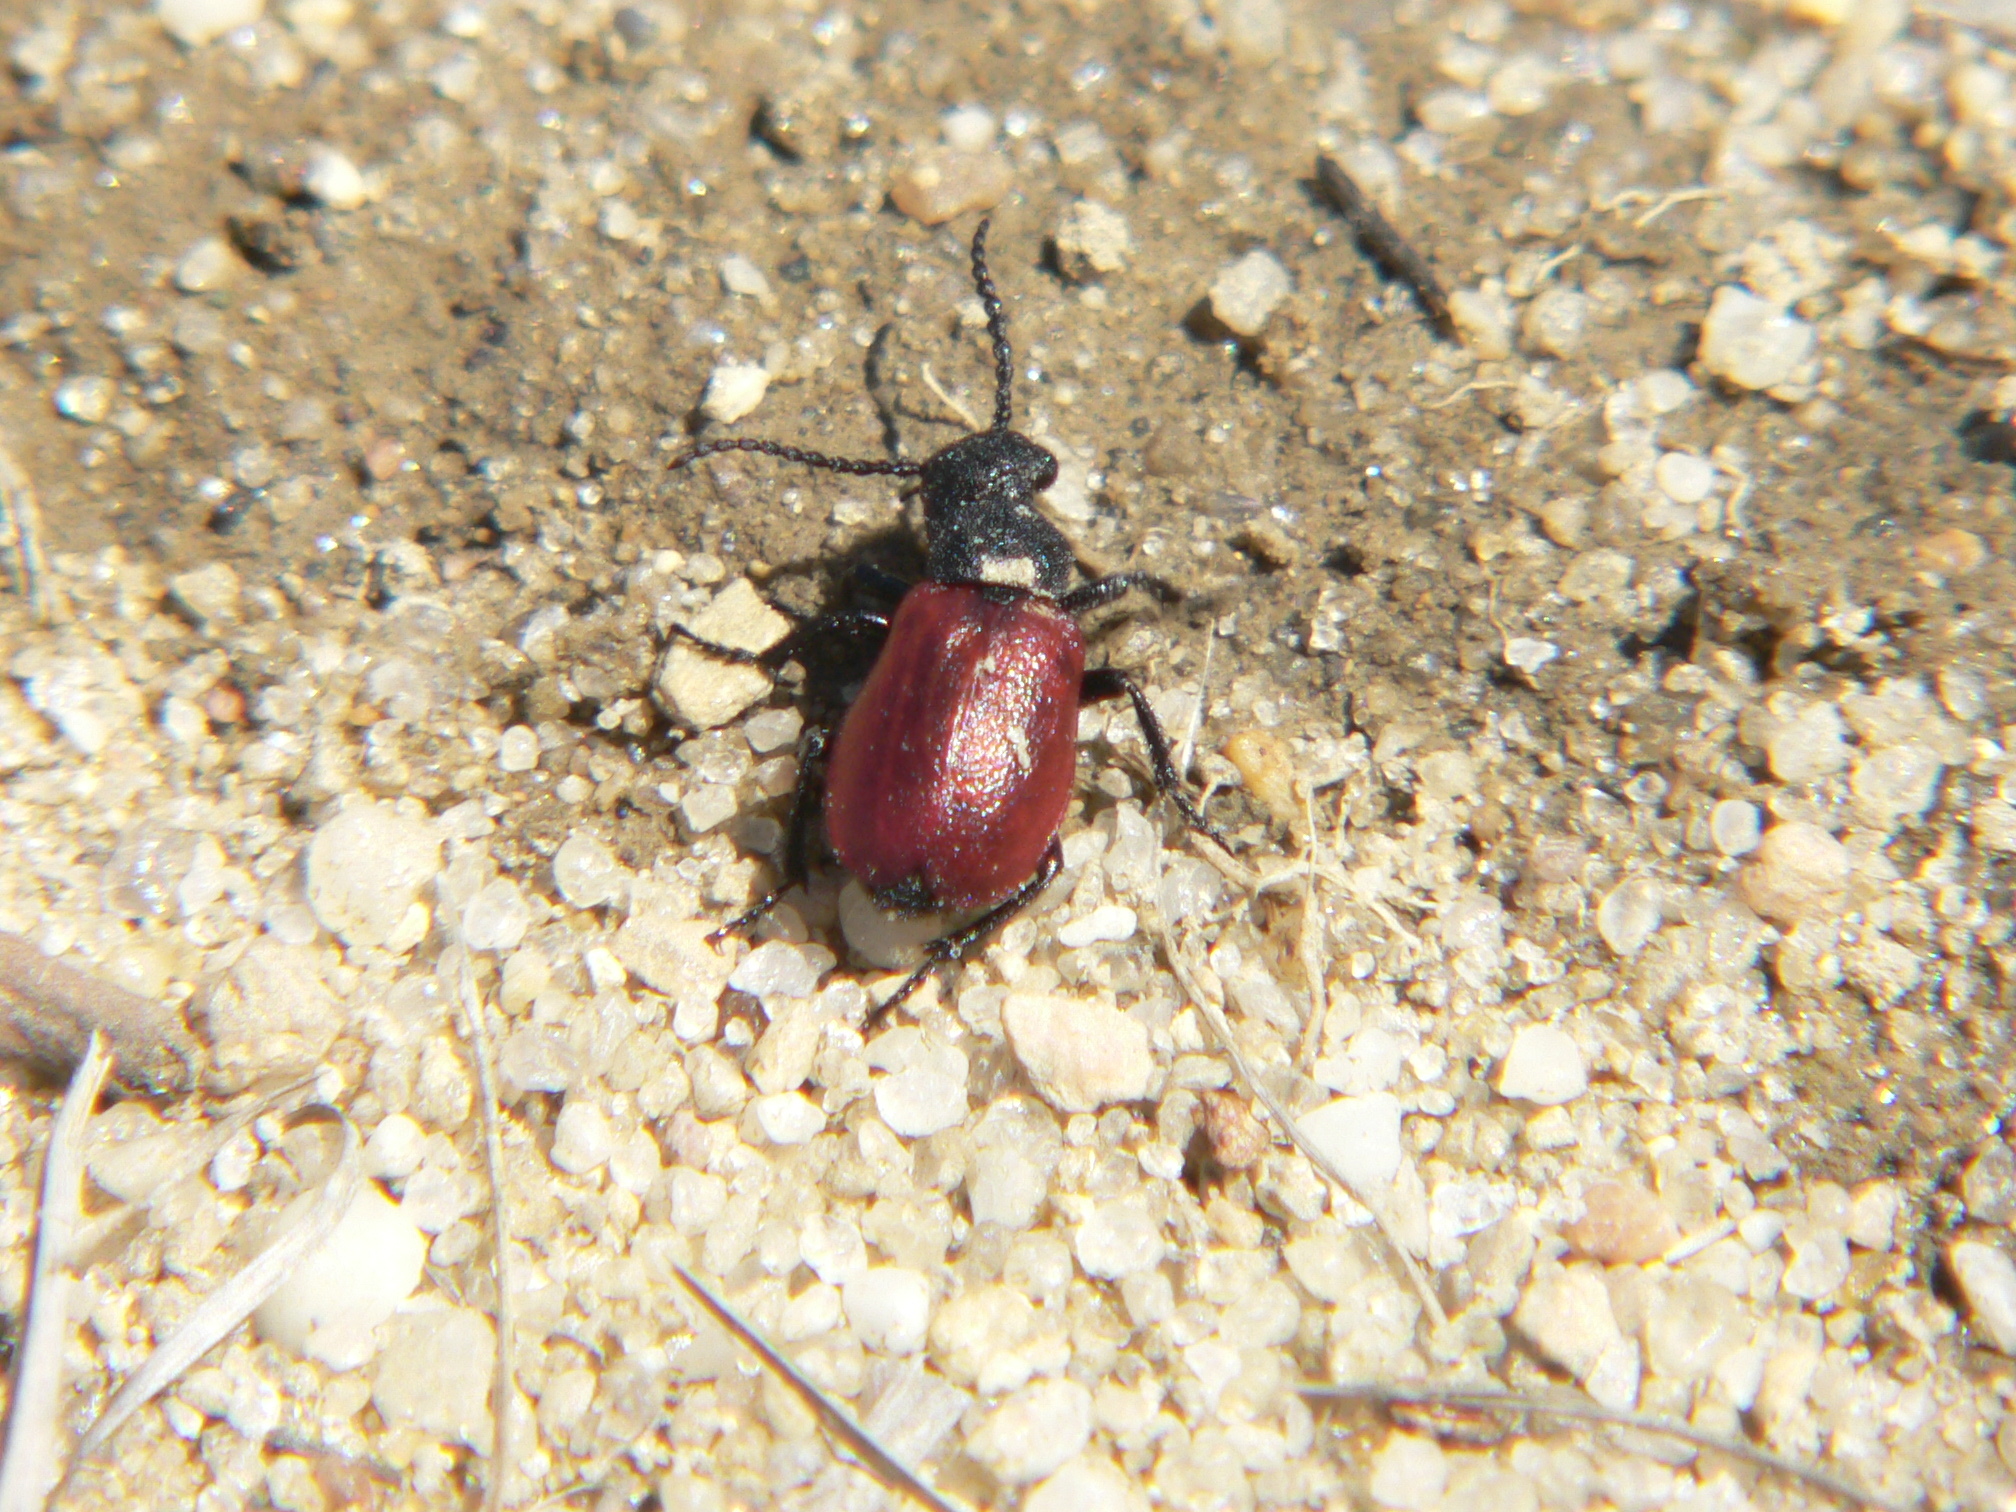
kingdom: Animalia
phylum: Arthropoda
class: Insecta
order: Coleoptera
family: Meloidae
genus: Tricrania
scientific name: Tricrania sanguinipennis
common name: Blood-winged blister beetle
